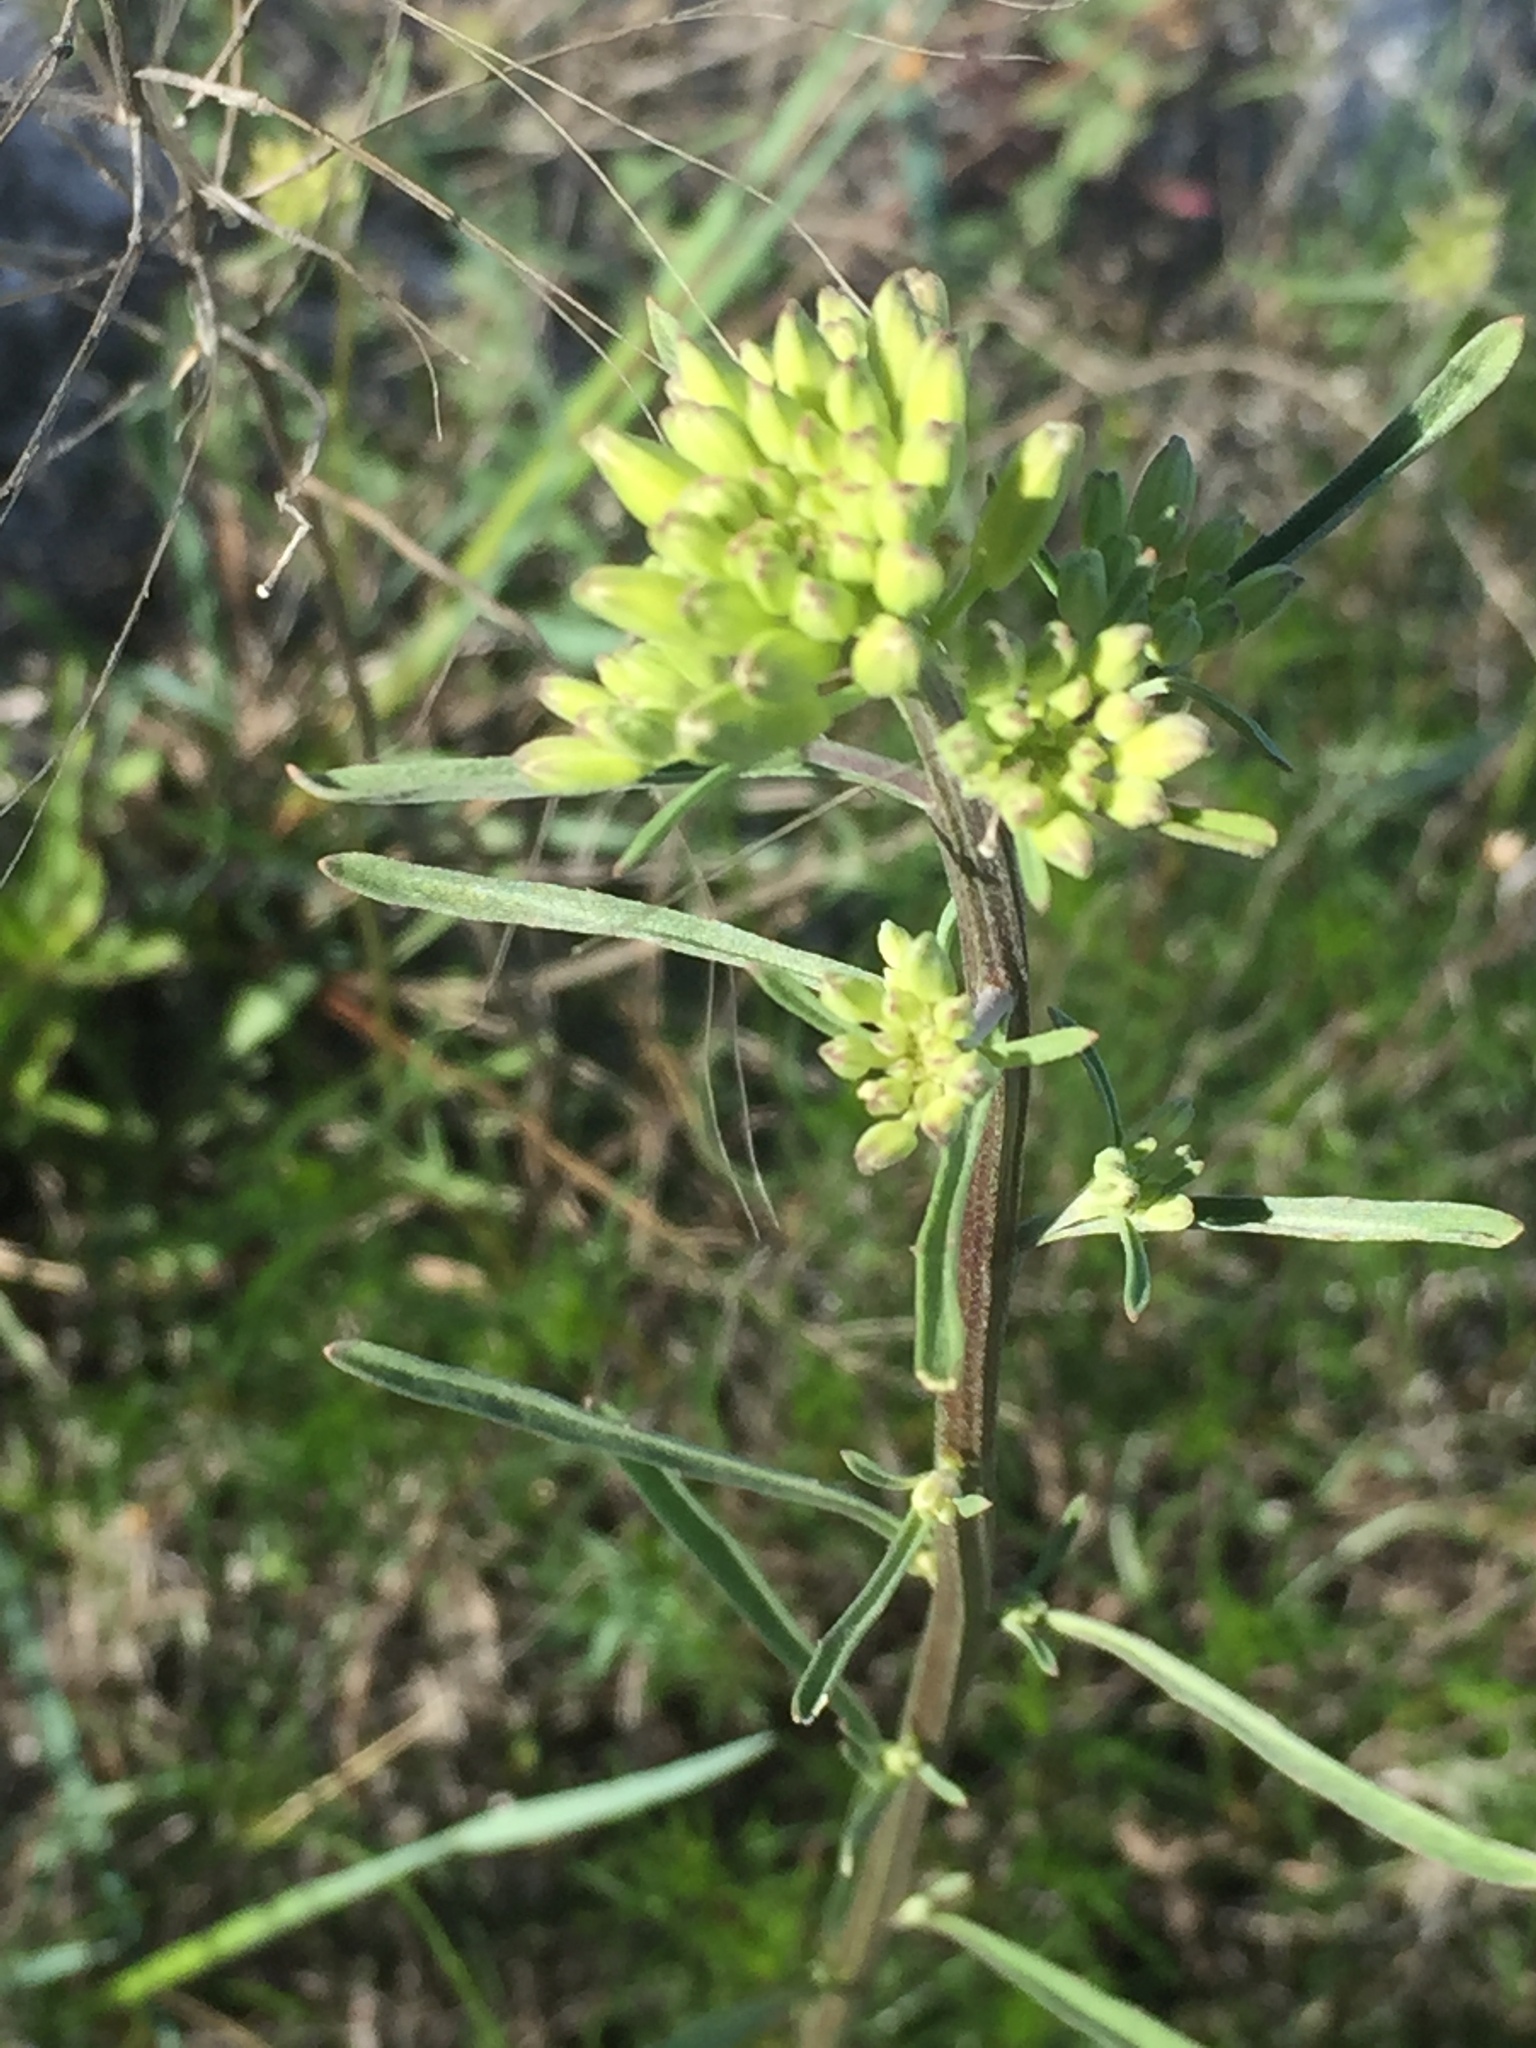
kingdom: Plantae
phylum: Tracheophyta
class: Magnoliopsida
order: Brassicales
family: Brassicaceae
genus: Erysimum
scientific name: Erysimum diffusum
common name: Diffuse wallflower
